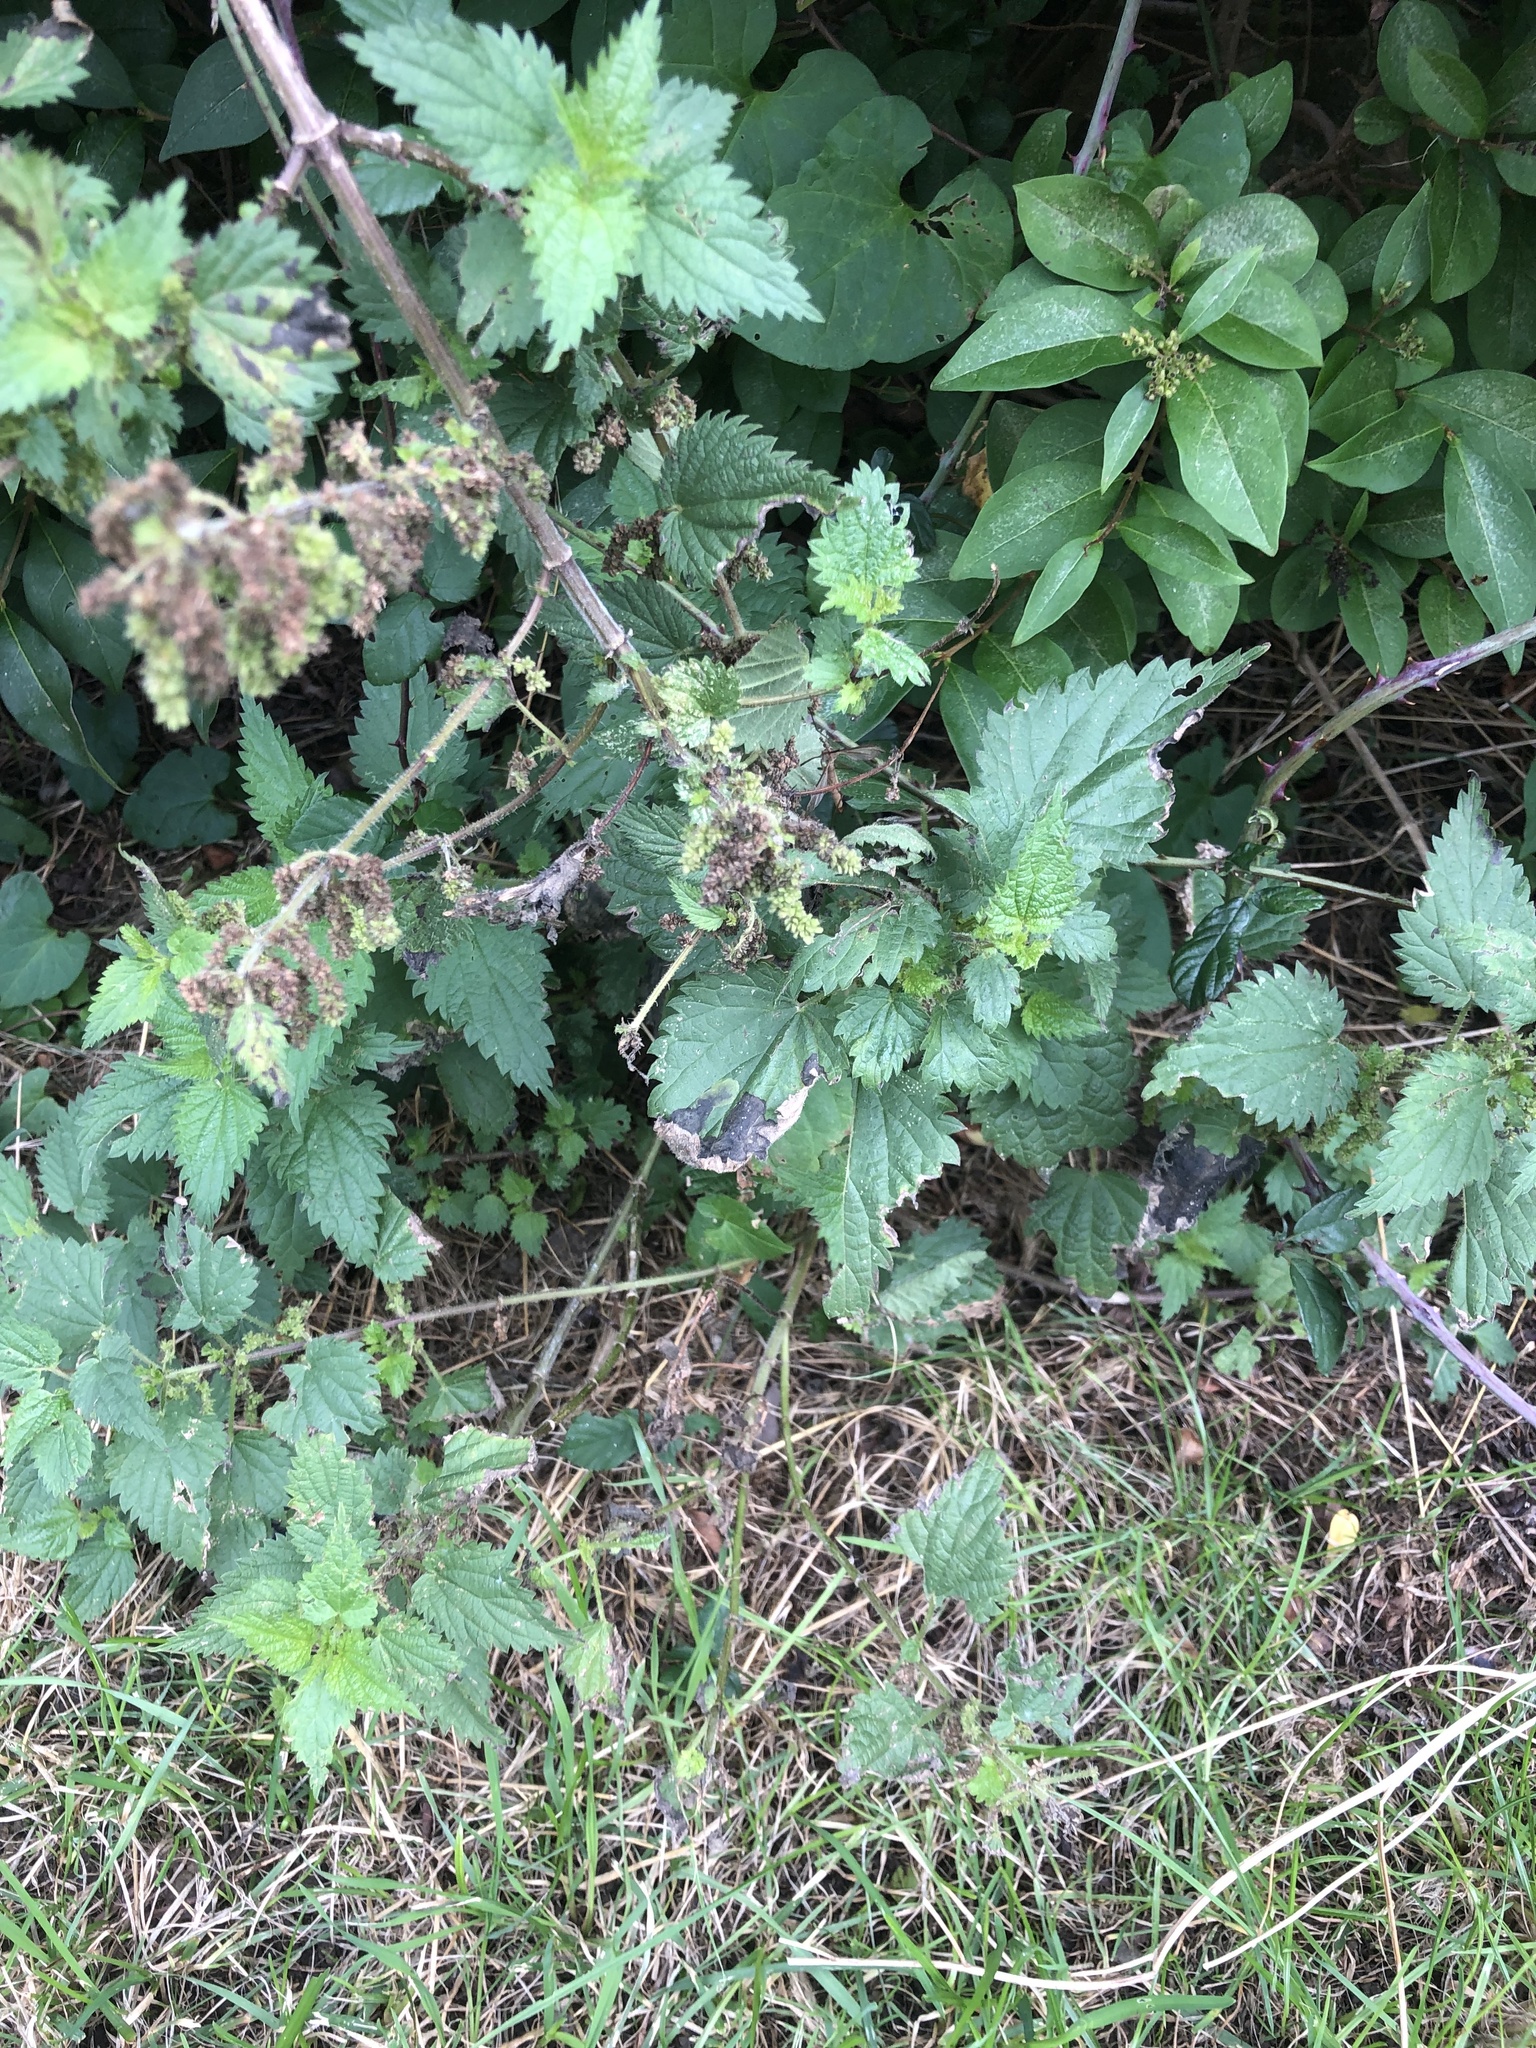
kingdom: Plantae
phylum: Tracheophyta
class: Magnoliopsida
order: Rosales
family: Urticaceae
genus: Urtica
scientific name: Urtica dioica
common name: Common nettle
